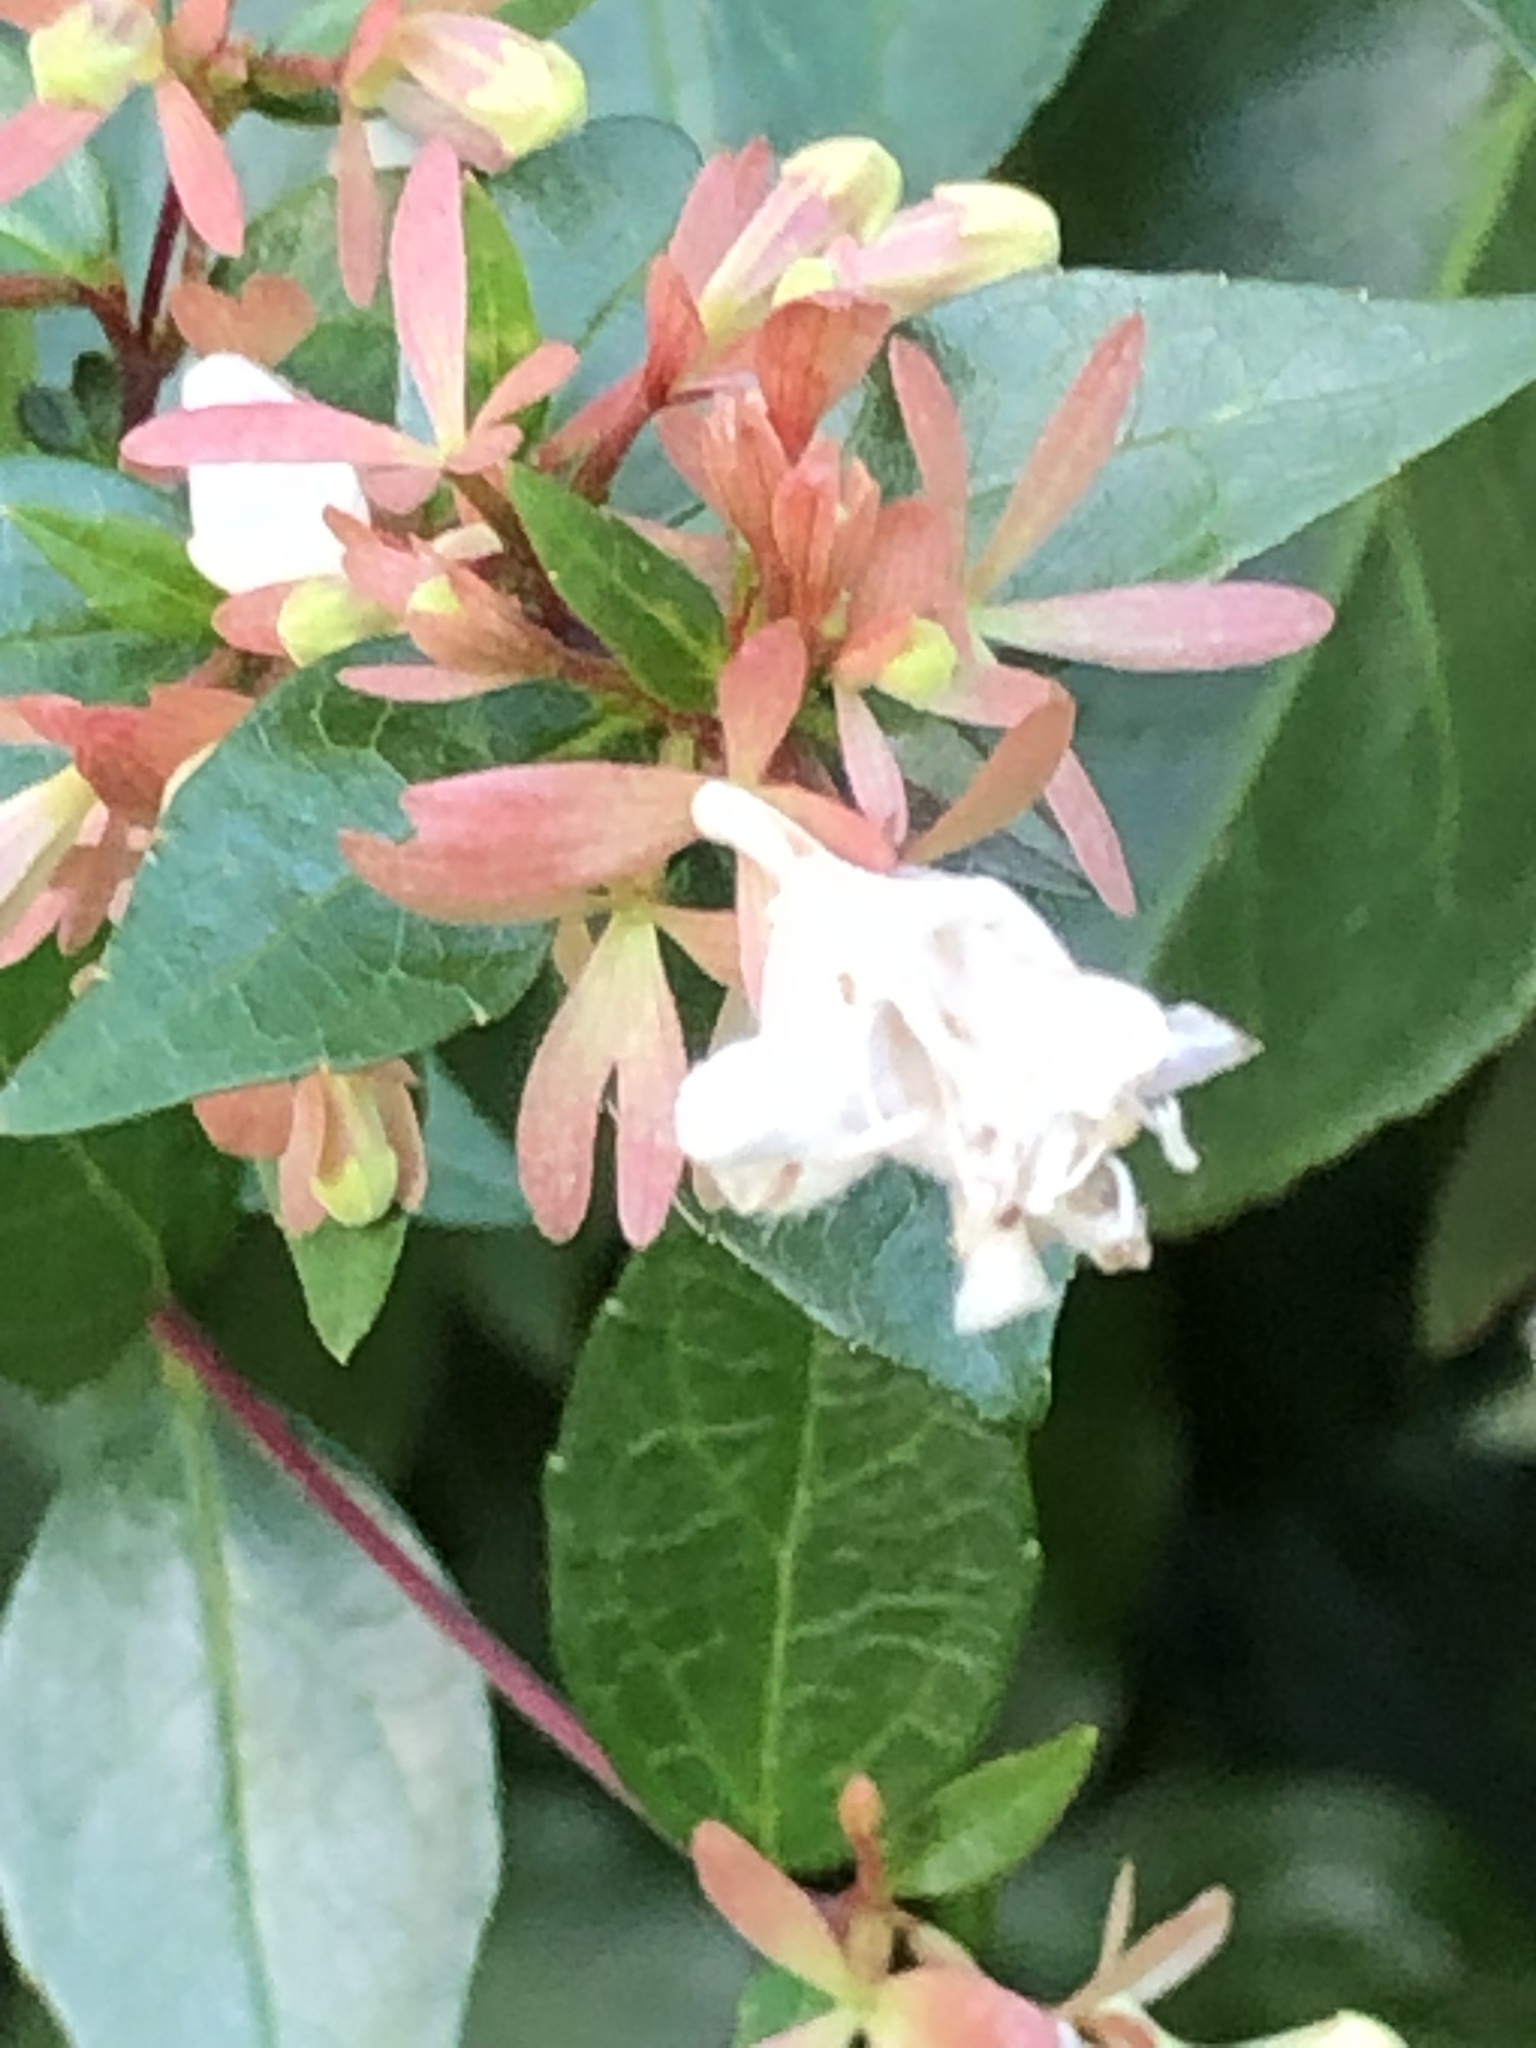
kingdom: Plantae
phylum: Tracheophyta
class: Magnoliopsida
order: Dipsacales
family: Caprifoliaceae
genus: Abelia
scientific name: Abelia chinensis
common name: Chinese abelia
